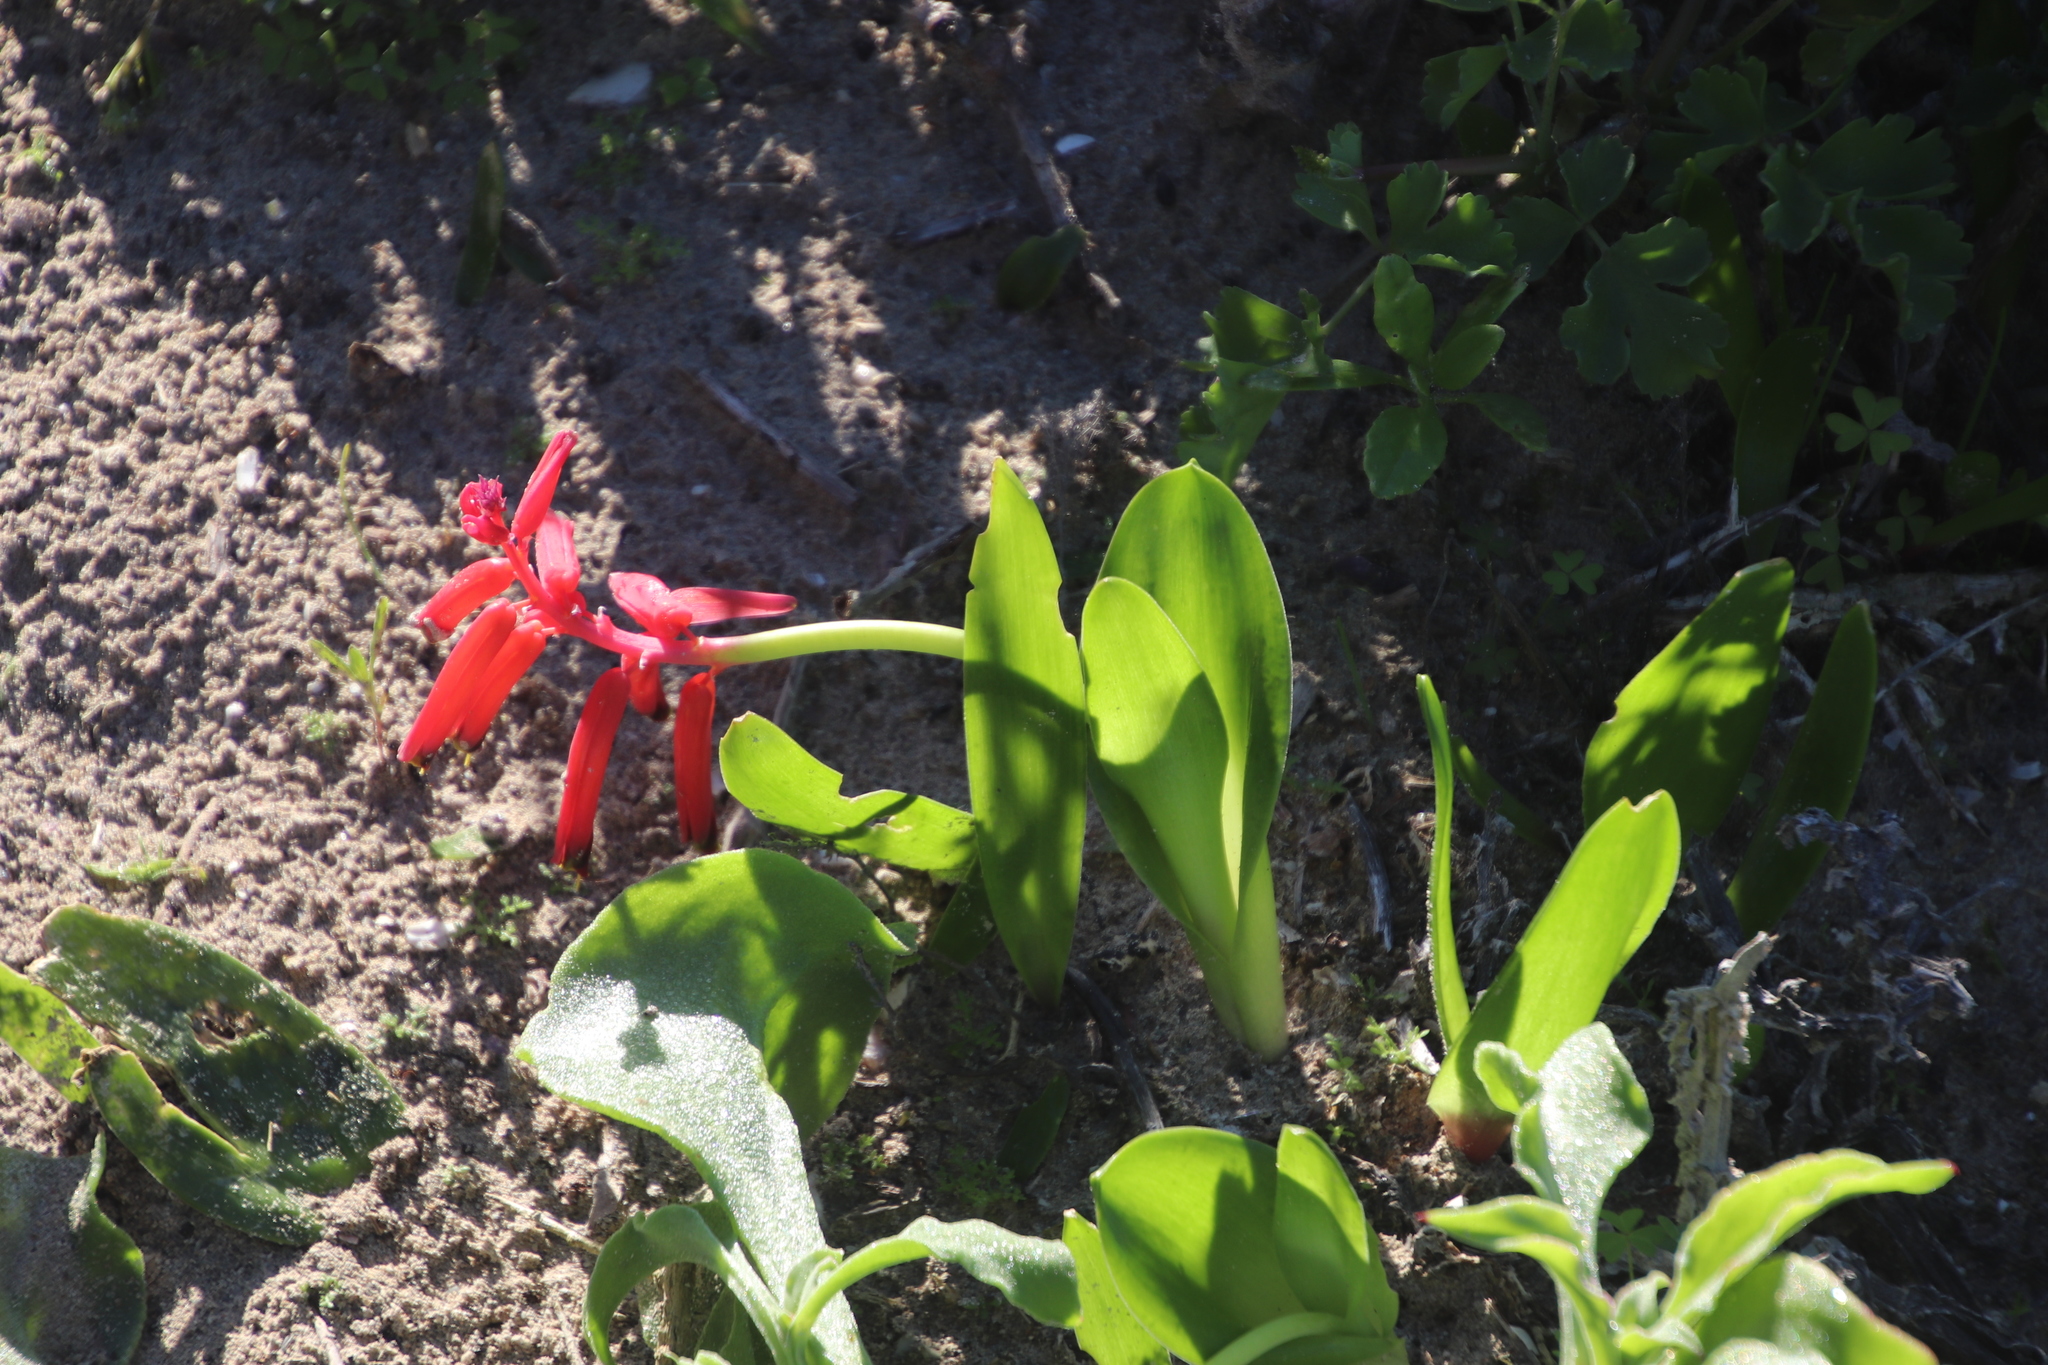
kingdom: Plantae
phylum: Tracheophyta
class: Liliopsida
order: Asparagales
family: Asparagaceae
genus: Lachenalia
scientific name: Lachenalia bulbifera
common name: Red lachenalia
